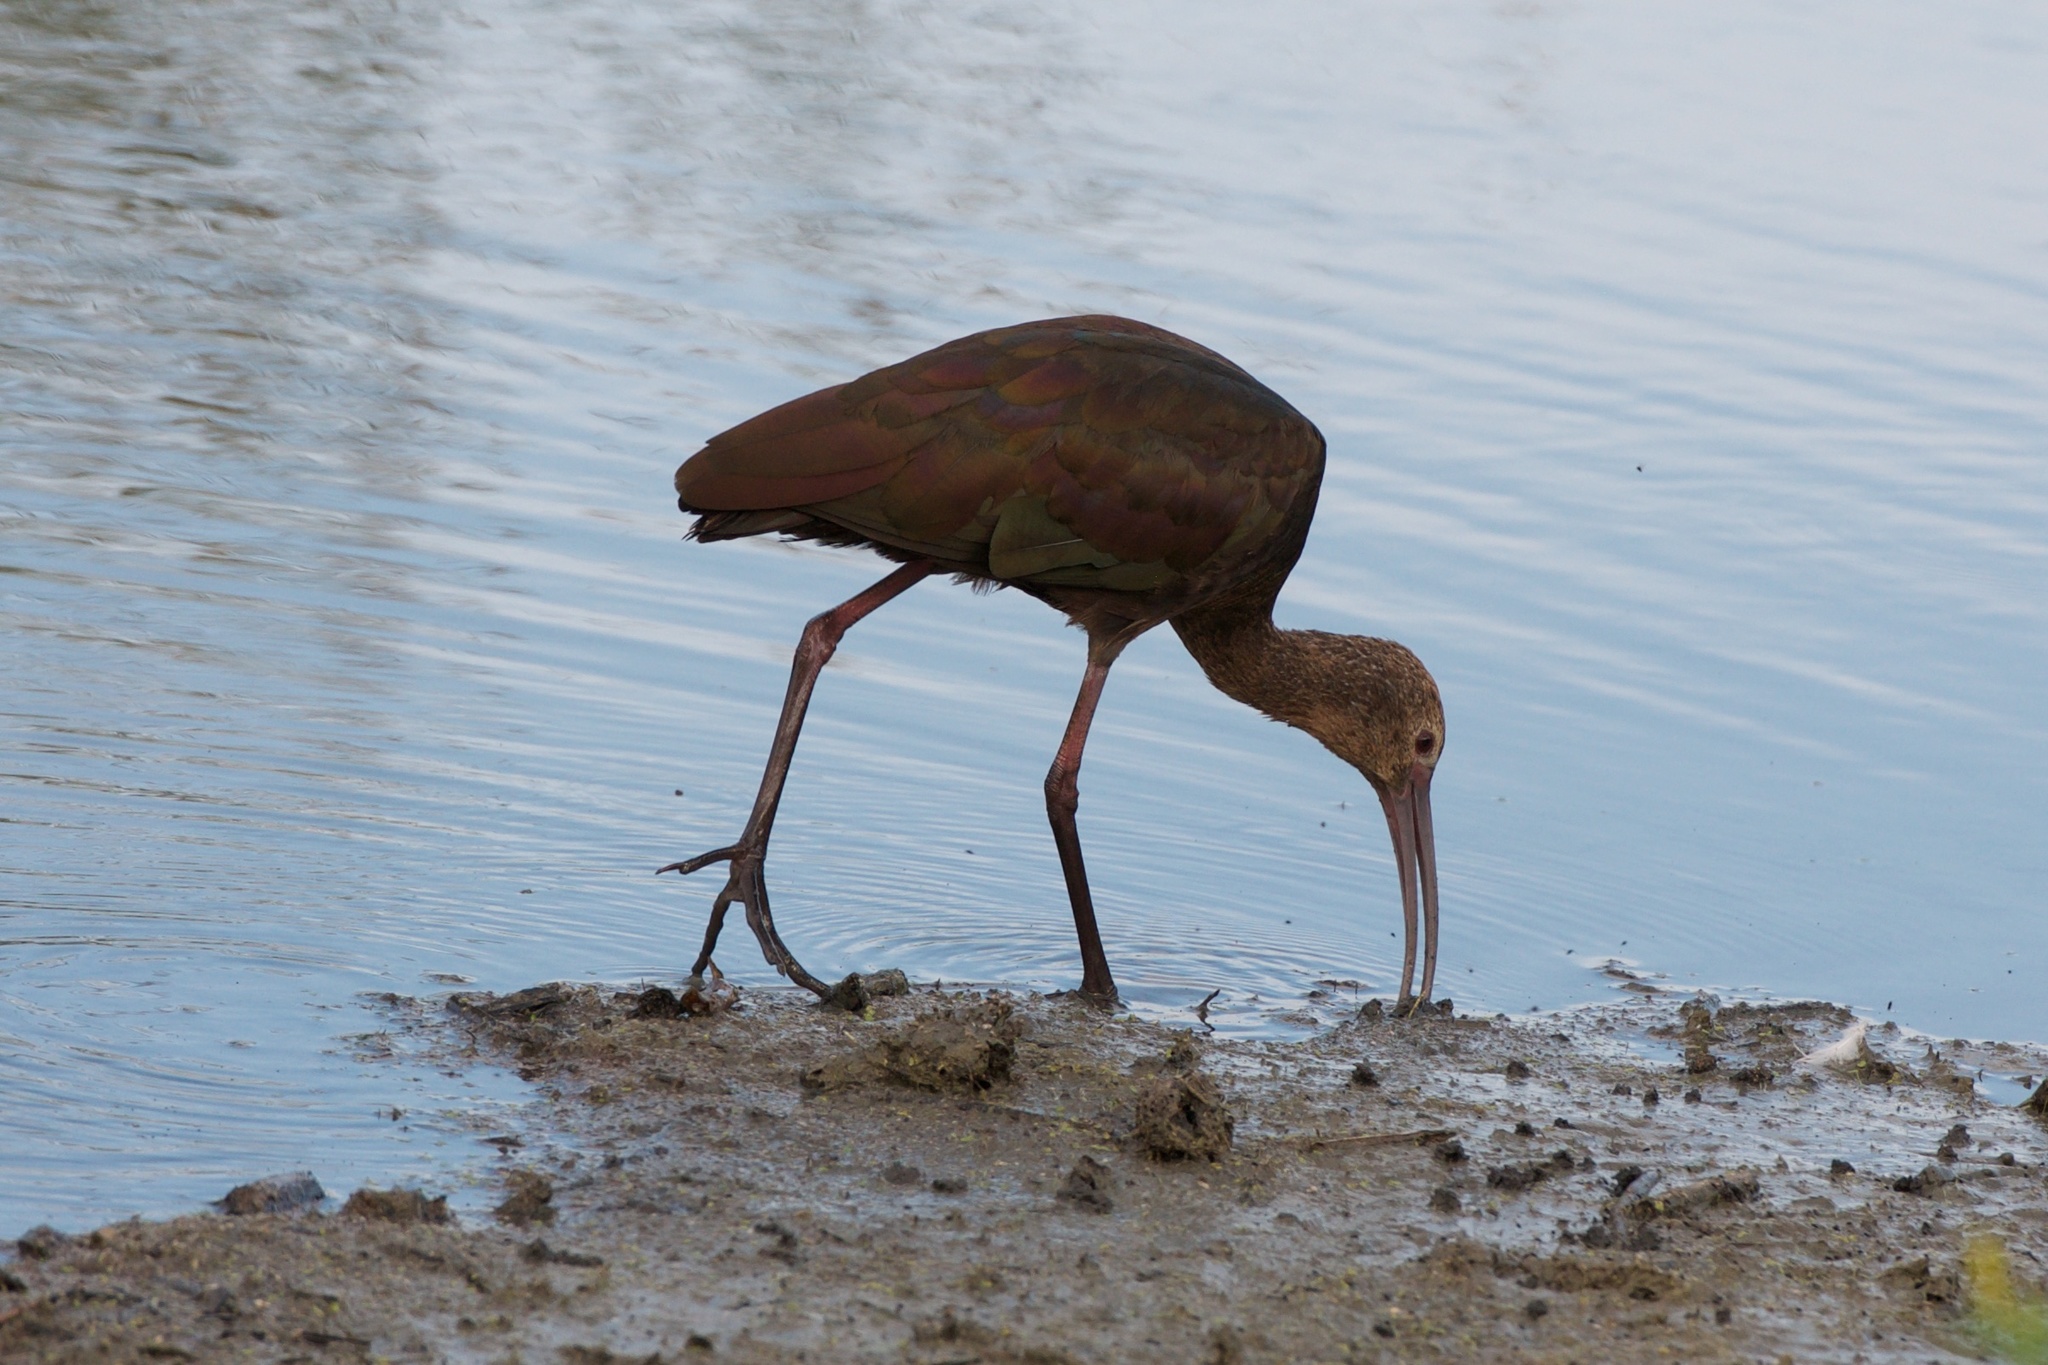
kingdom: Animalia
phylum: Chordata
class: Aves
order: Pelecaniformes
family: Threskiornithidae
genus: Plegadis
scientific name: Plegadis chihi
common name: White-faced ibis
